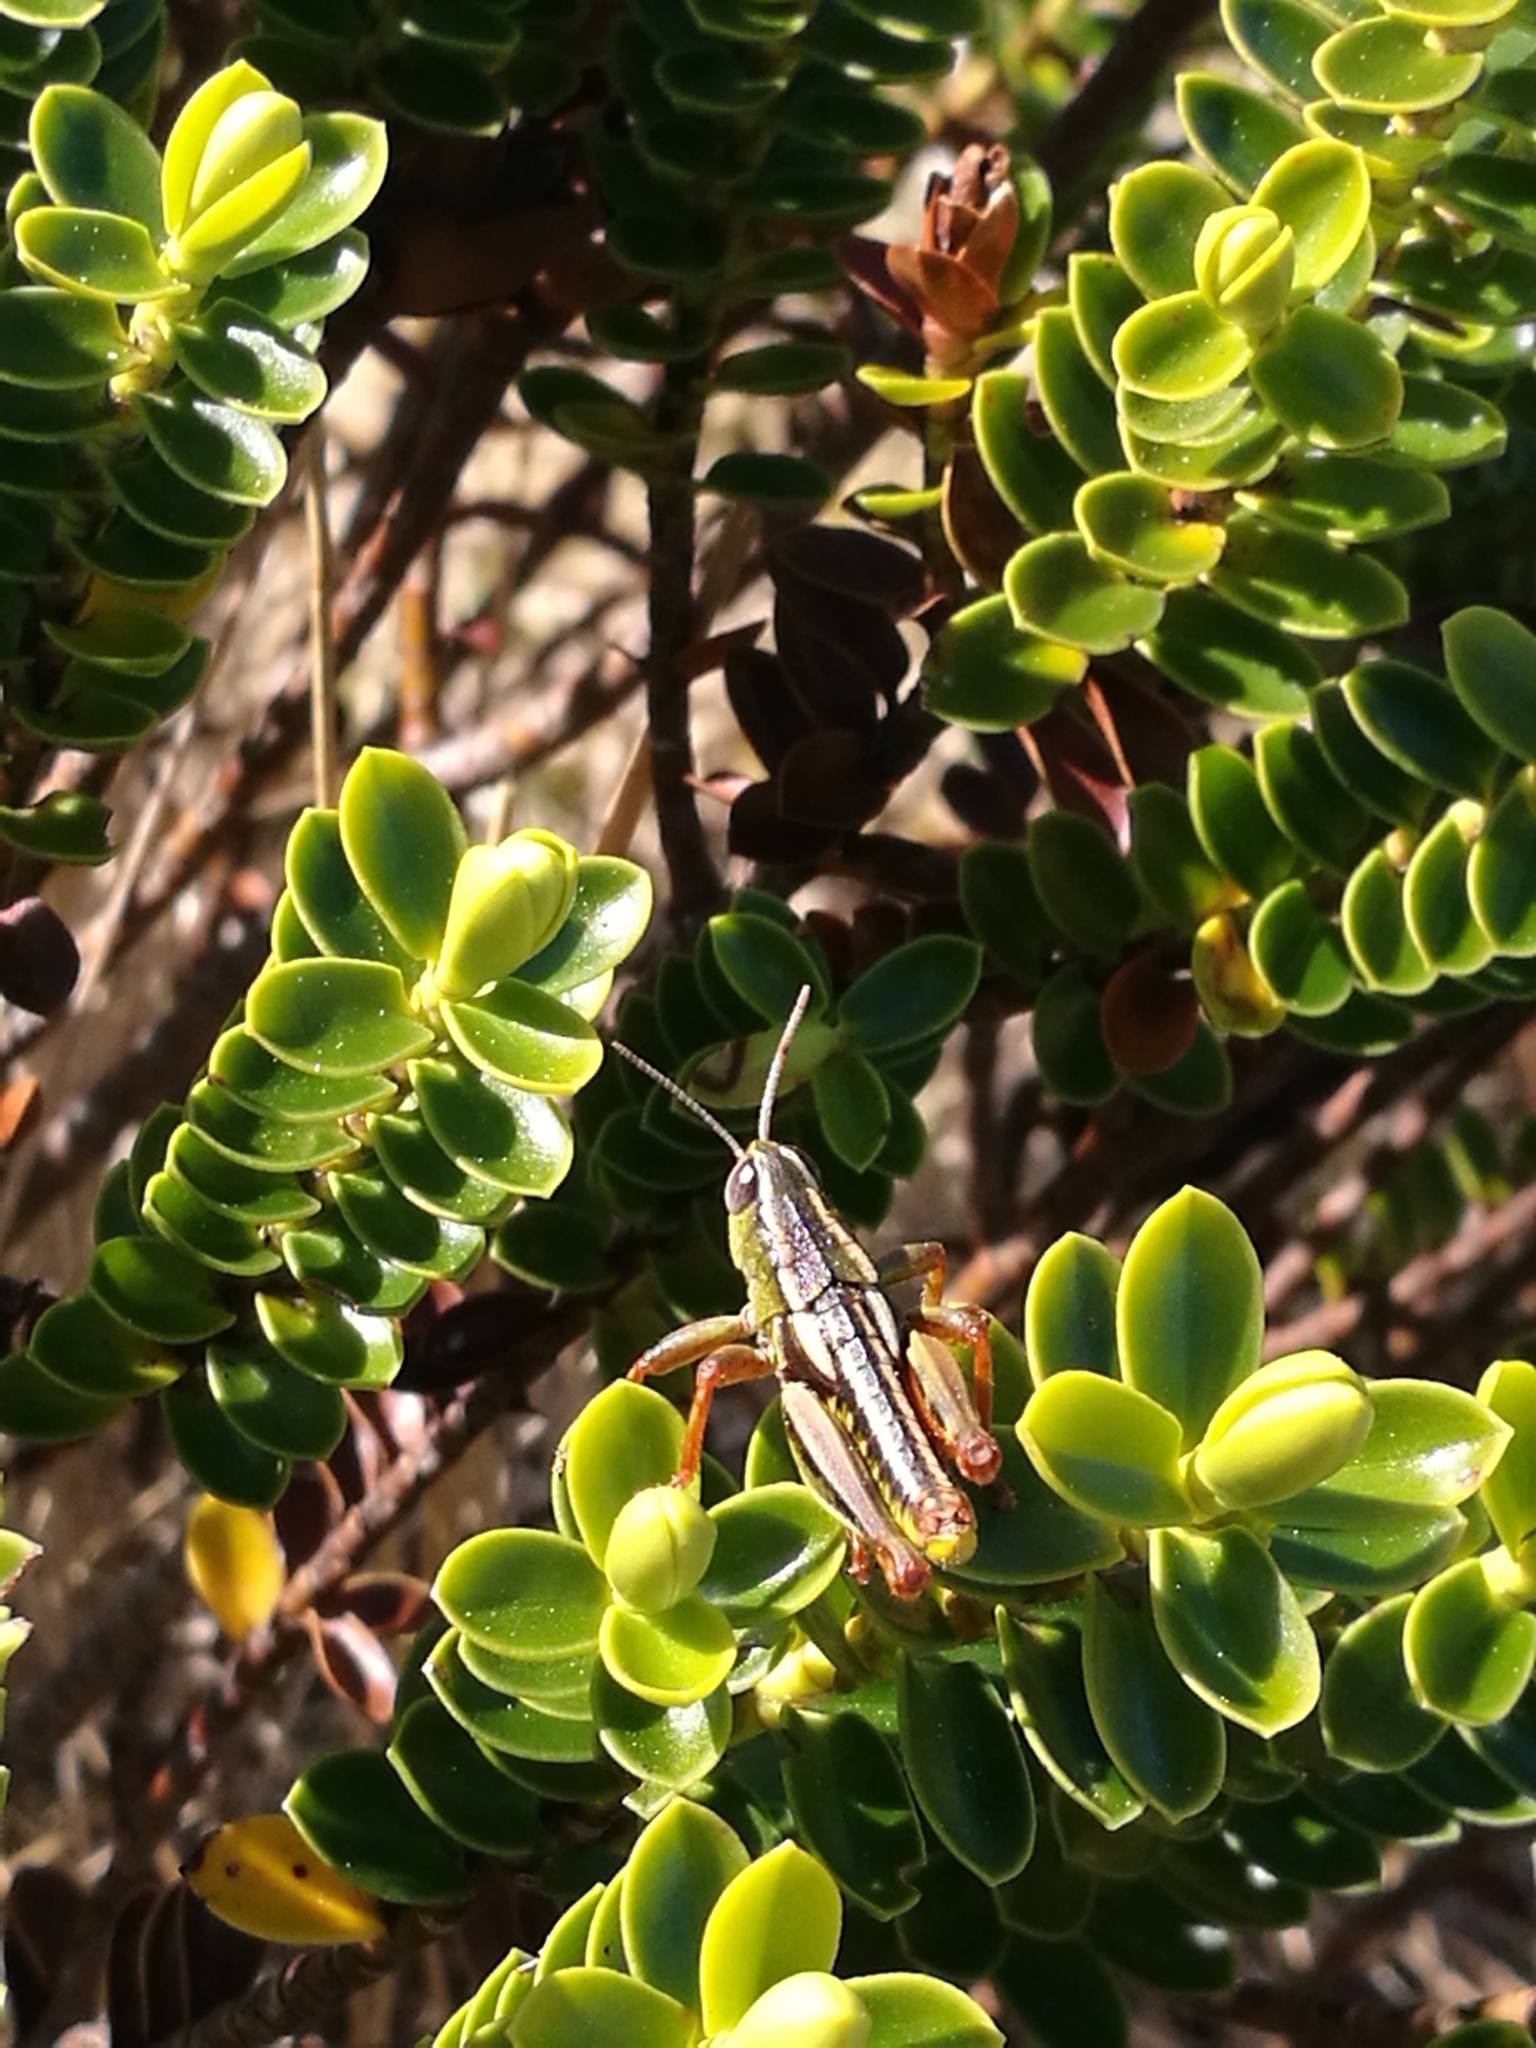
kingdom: Plantae
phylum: Tracheophyta
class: Magnoliopsida
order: Lamiales
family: Plantaginaceae
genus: Veronica
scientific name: Veronica odora
